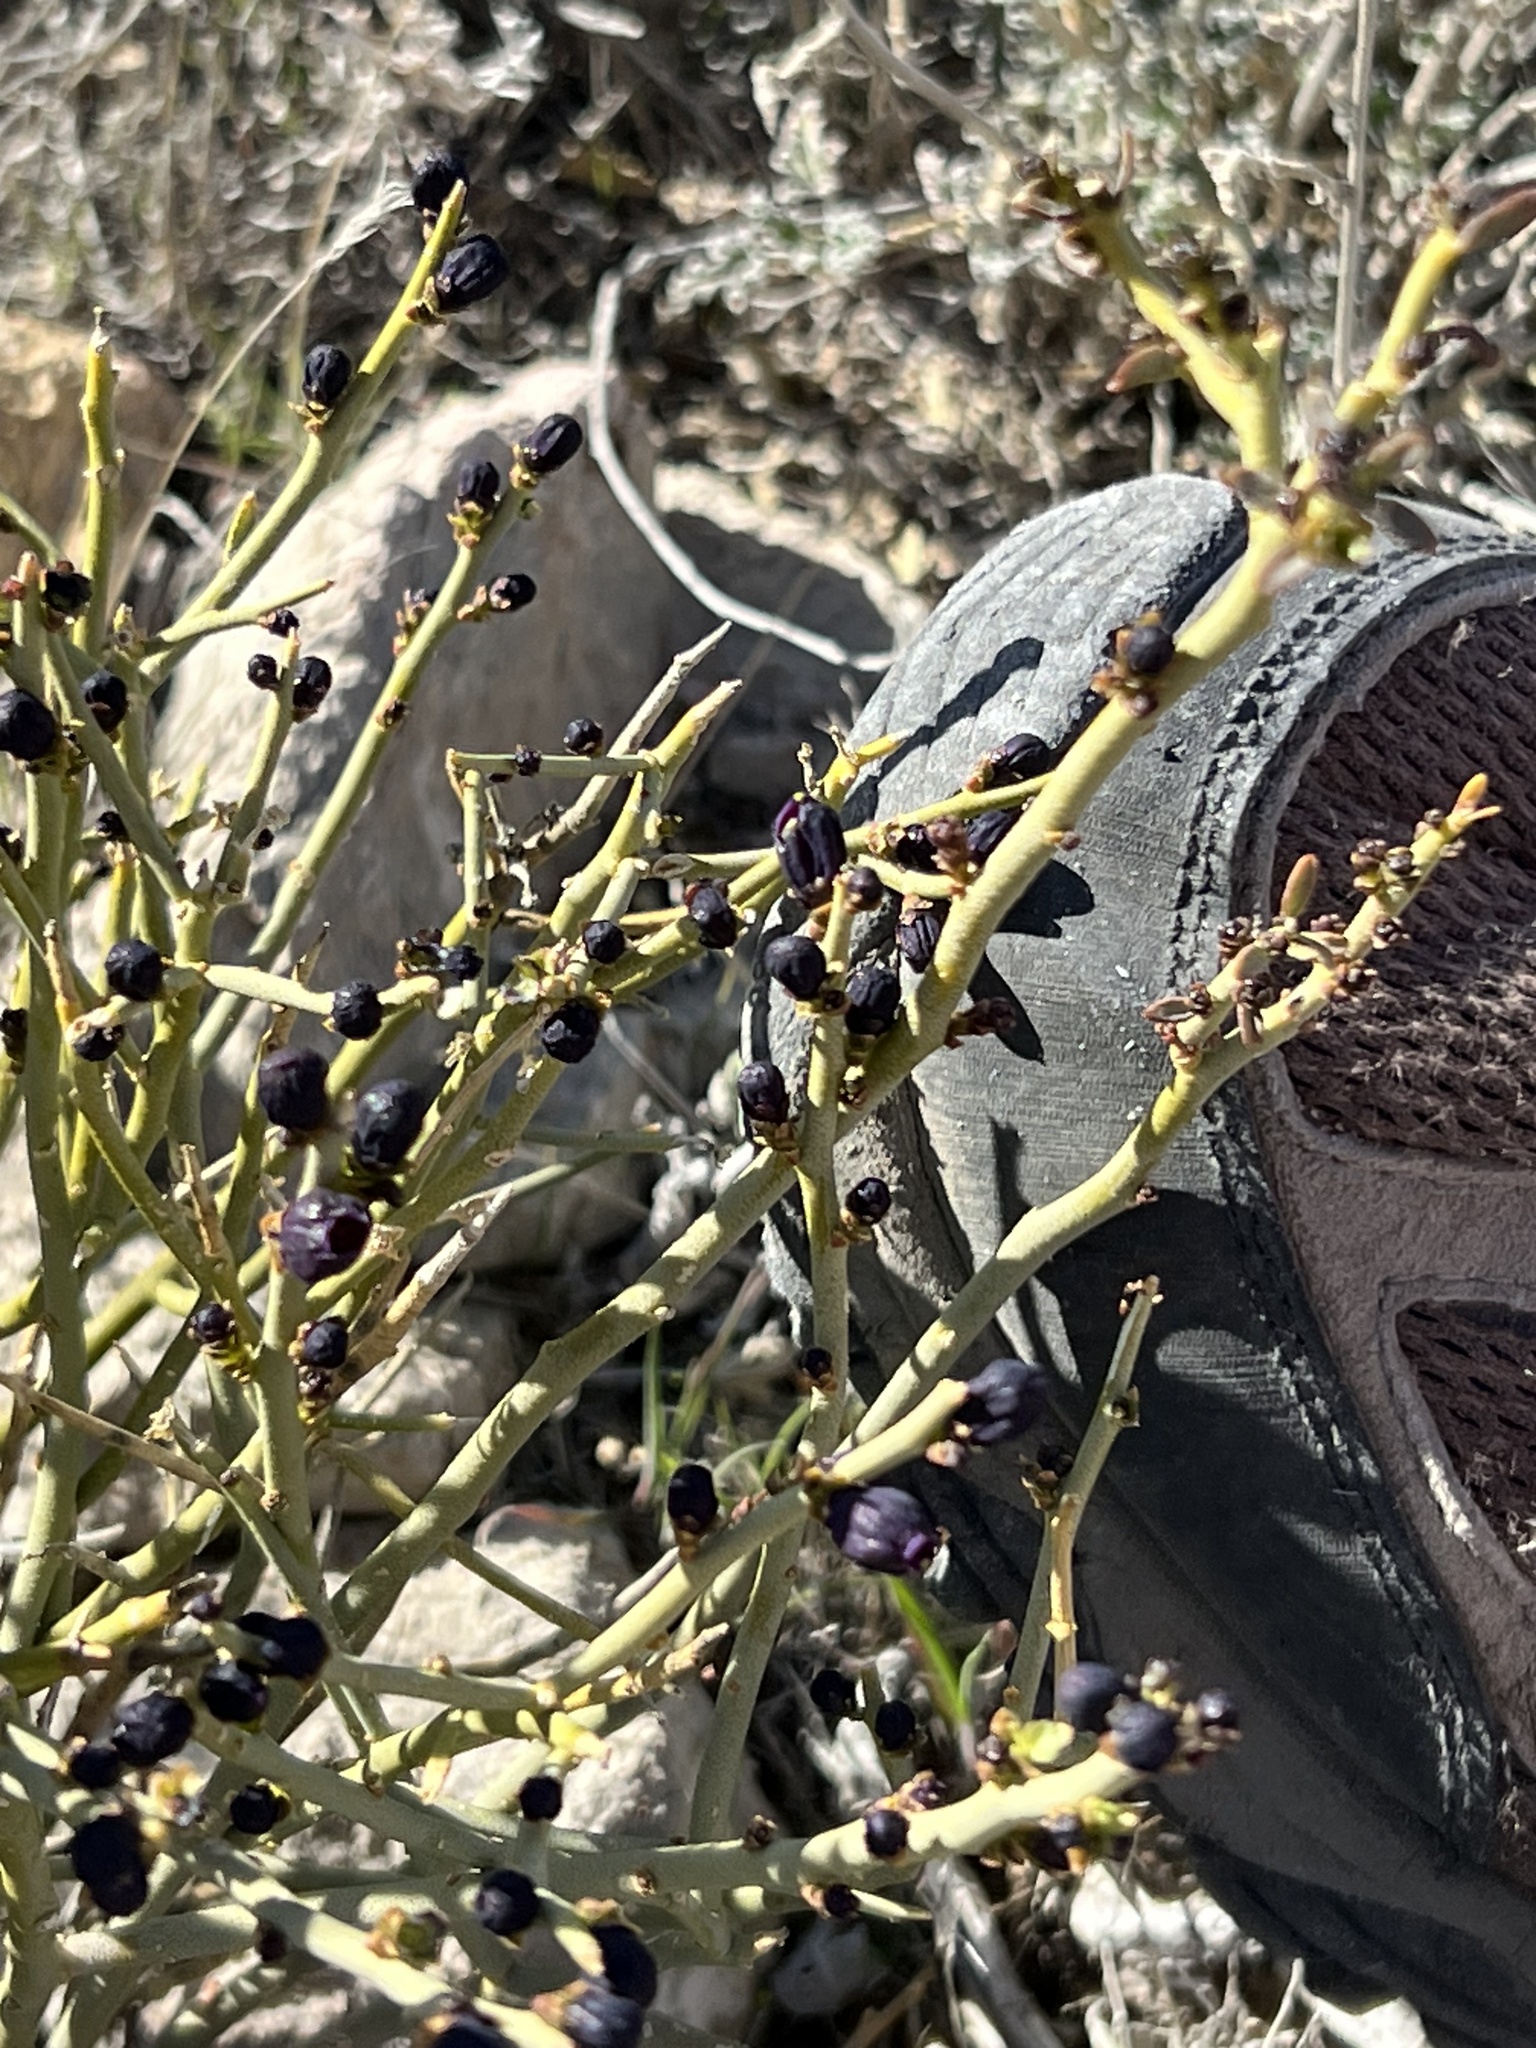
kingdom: Plantae
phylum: Tracheophyta
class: Magnoliopsida
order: Sapindales
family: Rutaceae
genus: Thamnosma
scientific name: Thamnosma montana
